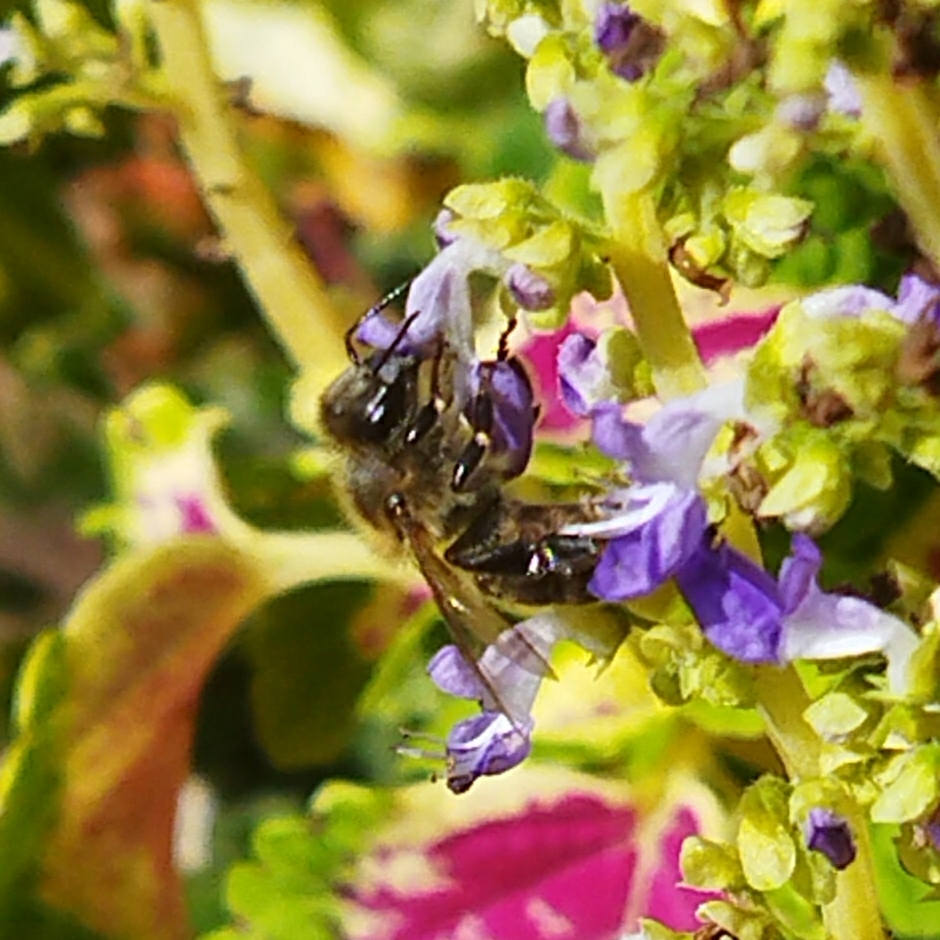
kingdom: Animalia
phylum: Arthropoda
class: Insecta
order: Hymenoptera
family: Apidae
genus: Apis
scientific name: Apis mellifera
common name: Honey bee
